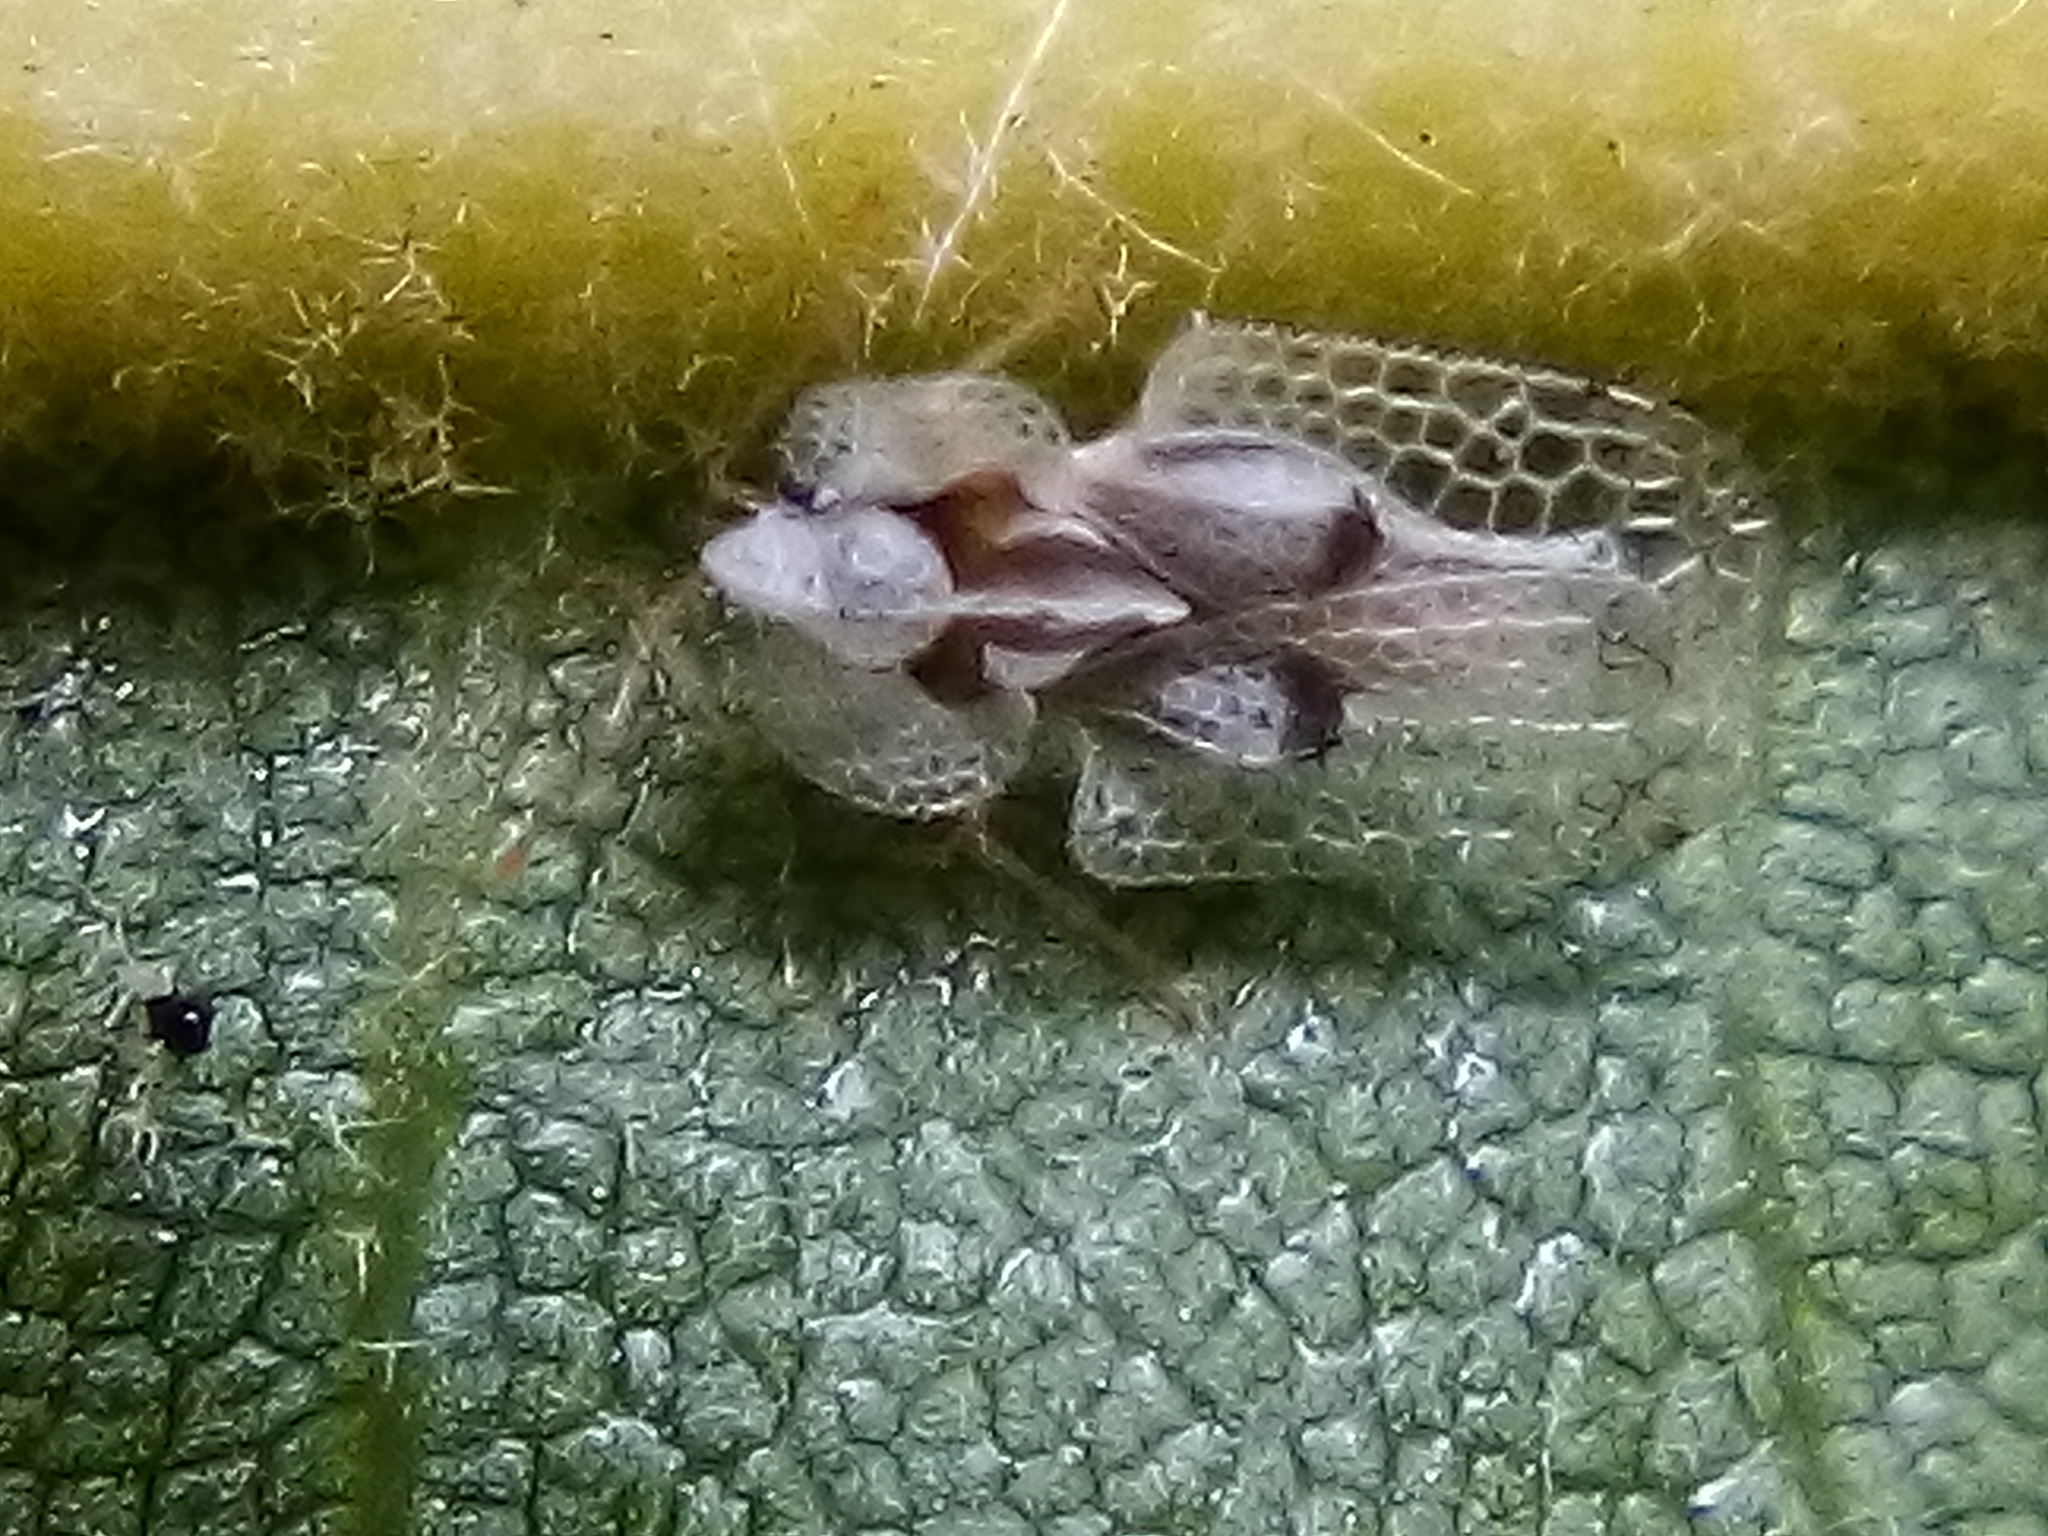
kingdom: Animalia
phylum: Arthropoda
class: Insecta
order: Hemiptera
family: Tingidae
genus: Corythucha
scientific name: Corythucha ciliata
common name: Sycamore lace bug
